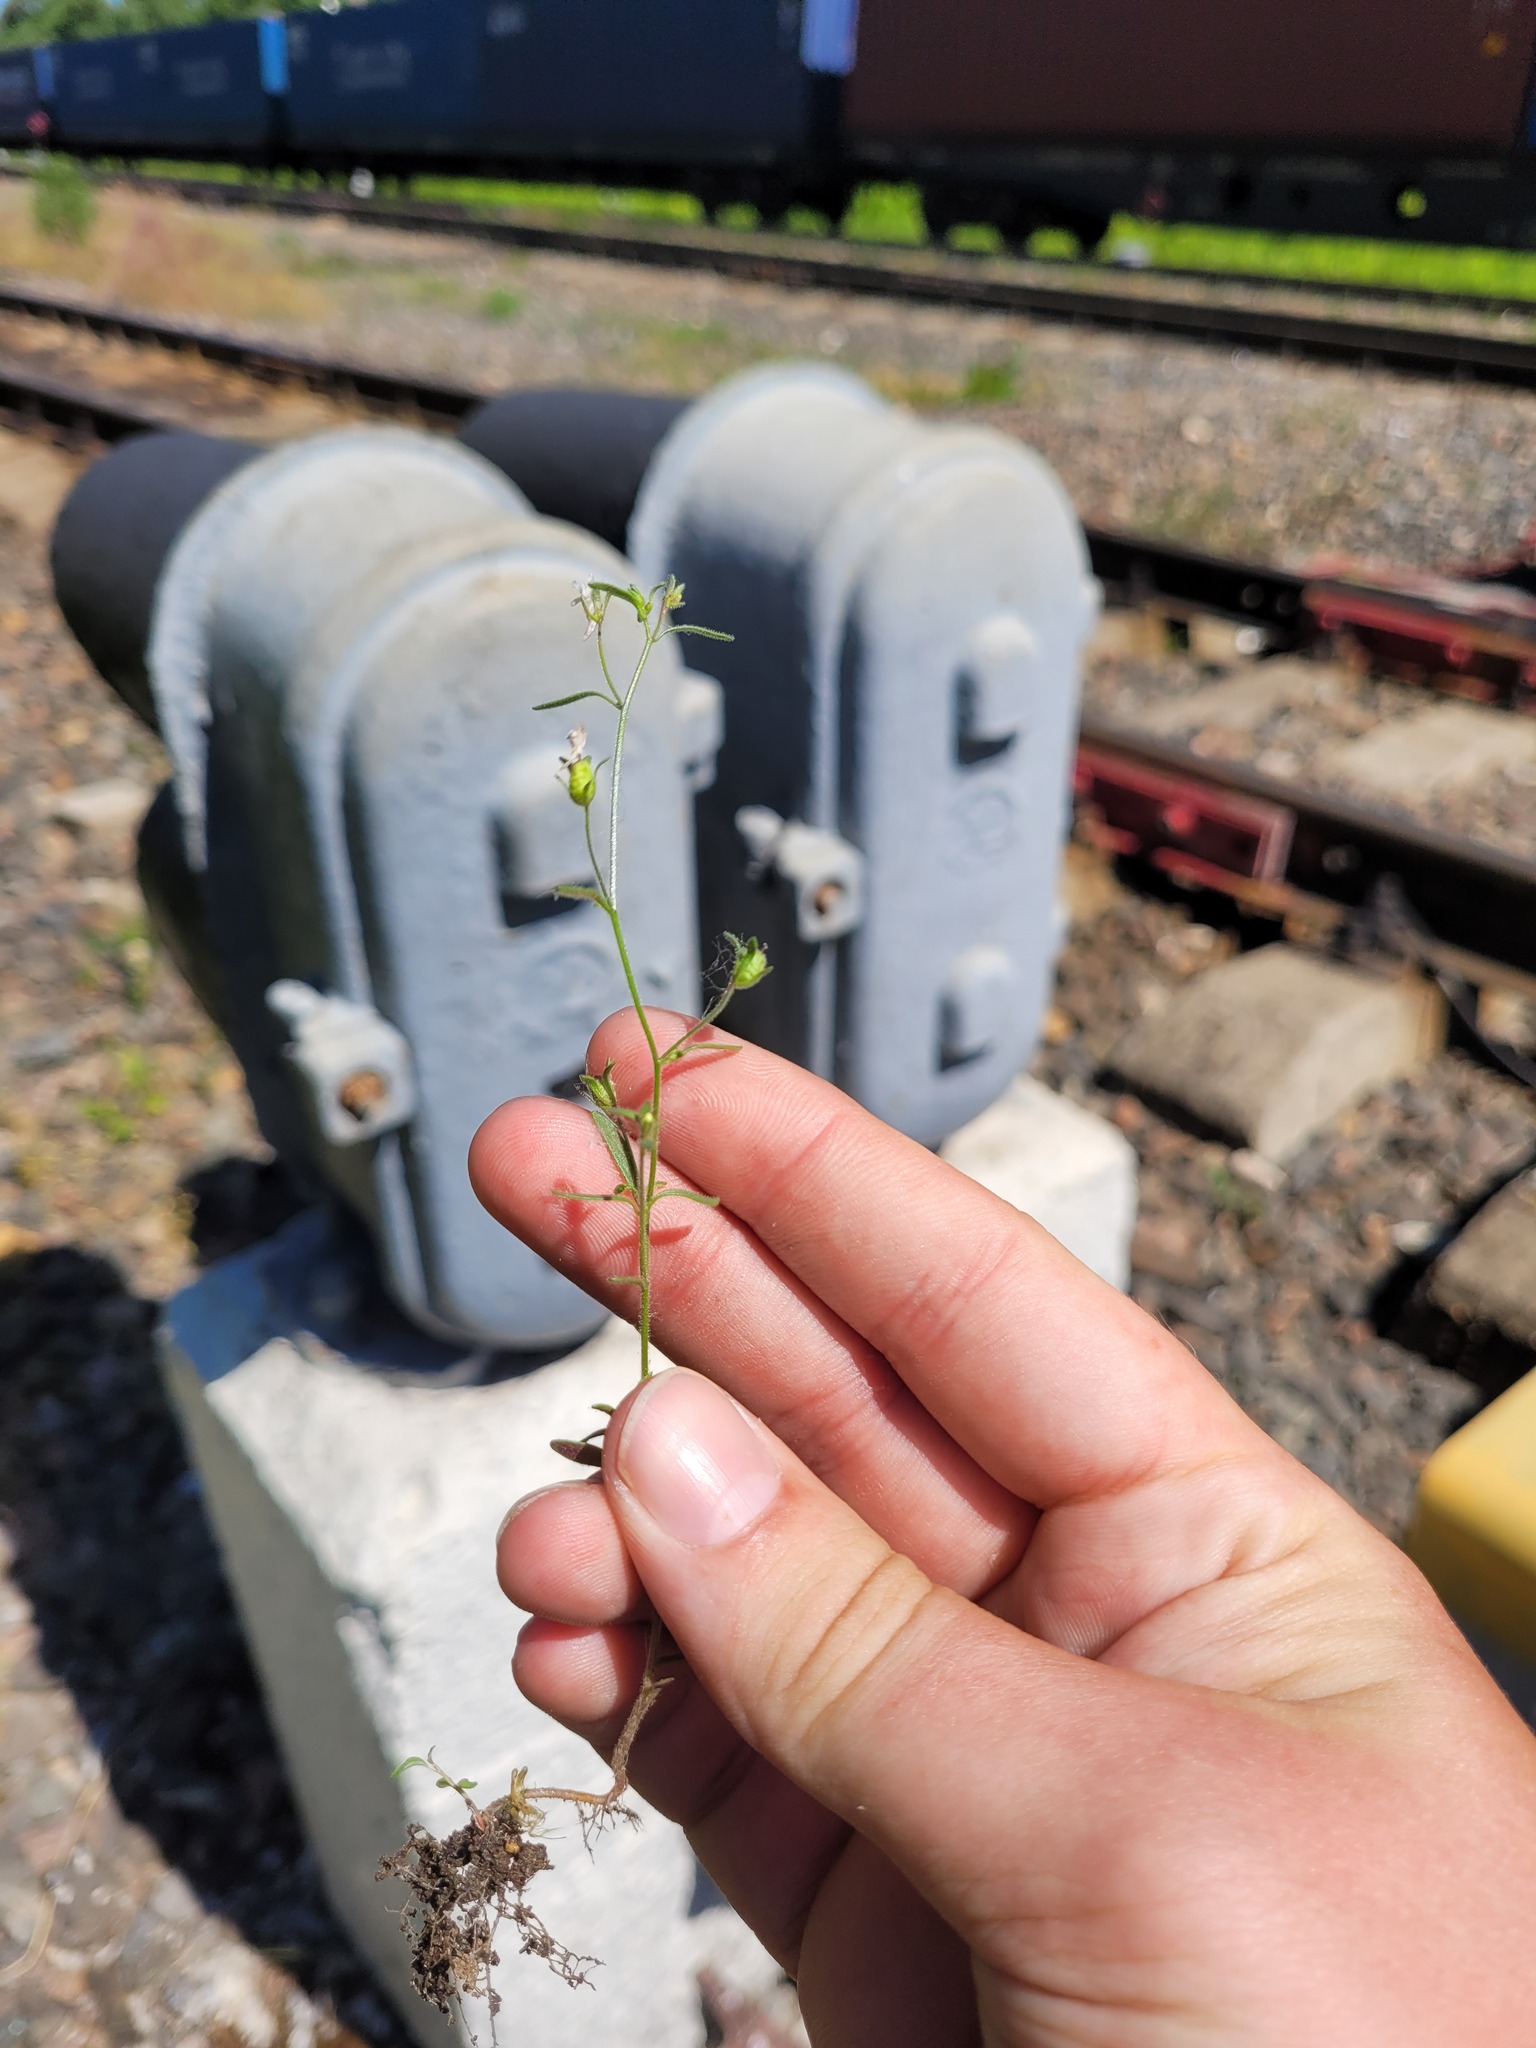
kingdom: Plantae
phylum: Tracheophyta
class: Magnoliopsida
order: Lamiales
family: Plantaginaceae
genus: Chaenorhinum
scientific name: Chaenorhinum minus
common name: Dwarf snapdragon
